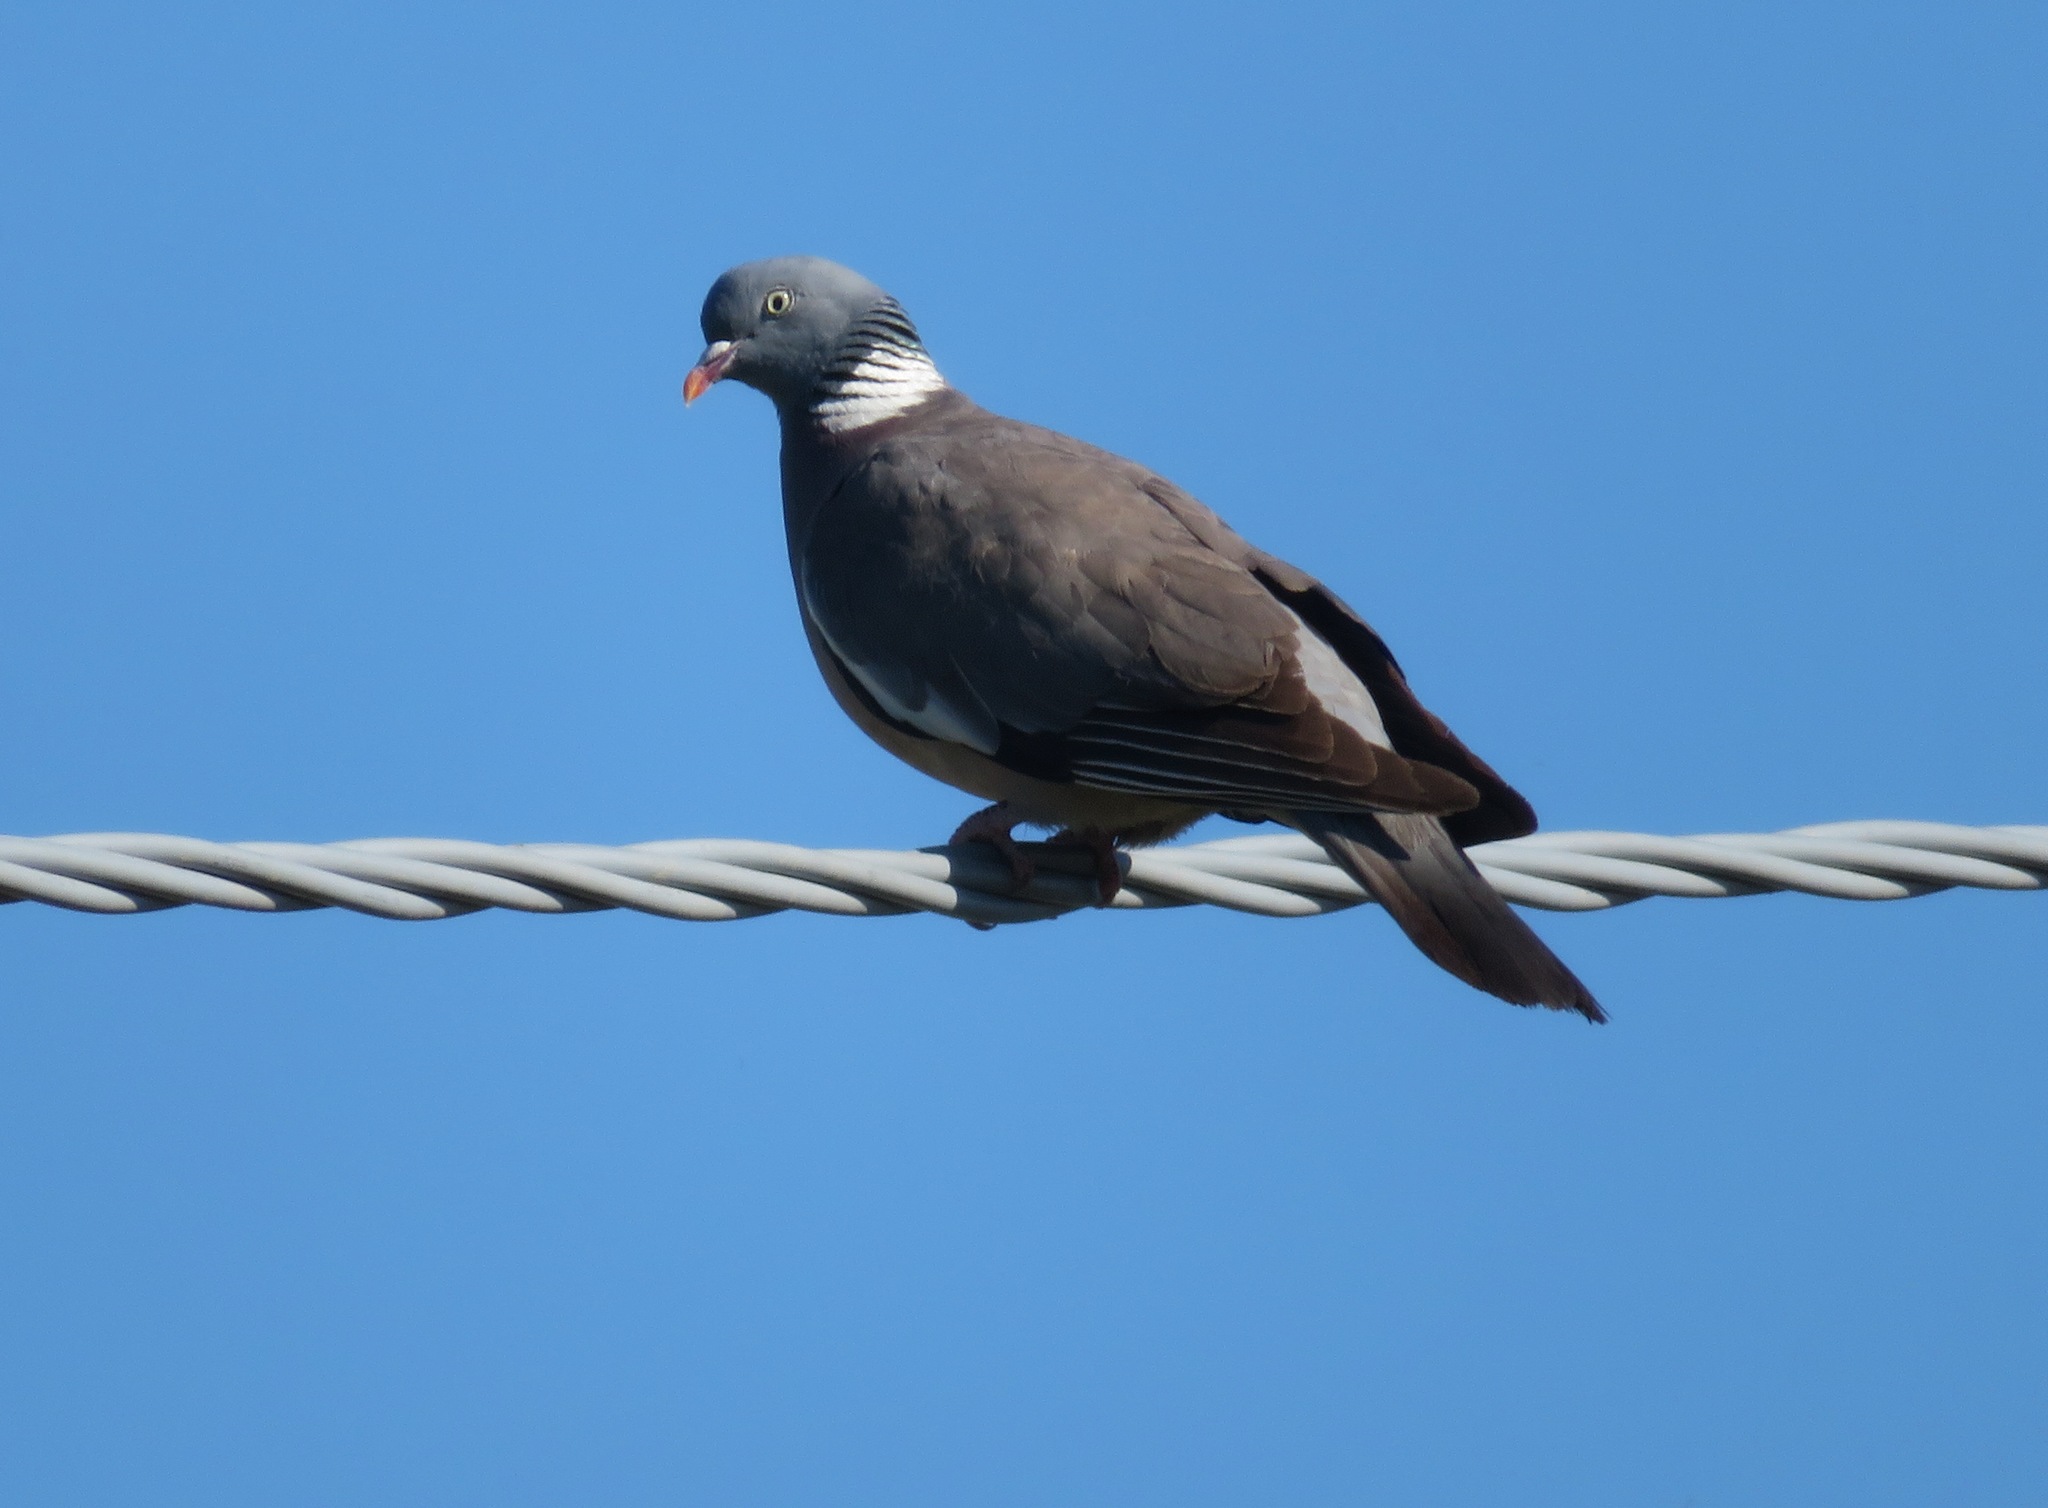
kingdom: Animalia
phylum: Chordata
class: Aves
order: Columbiformes
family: Columbidae
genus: Columba
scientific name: Columba palumbus
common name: Common wood pigeon
